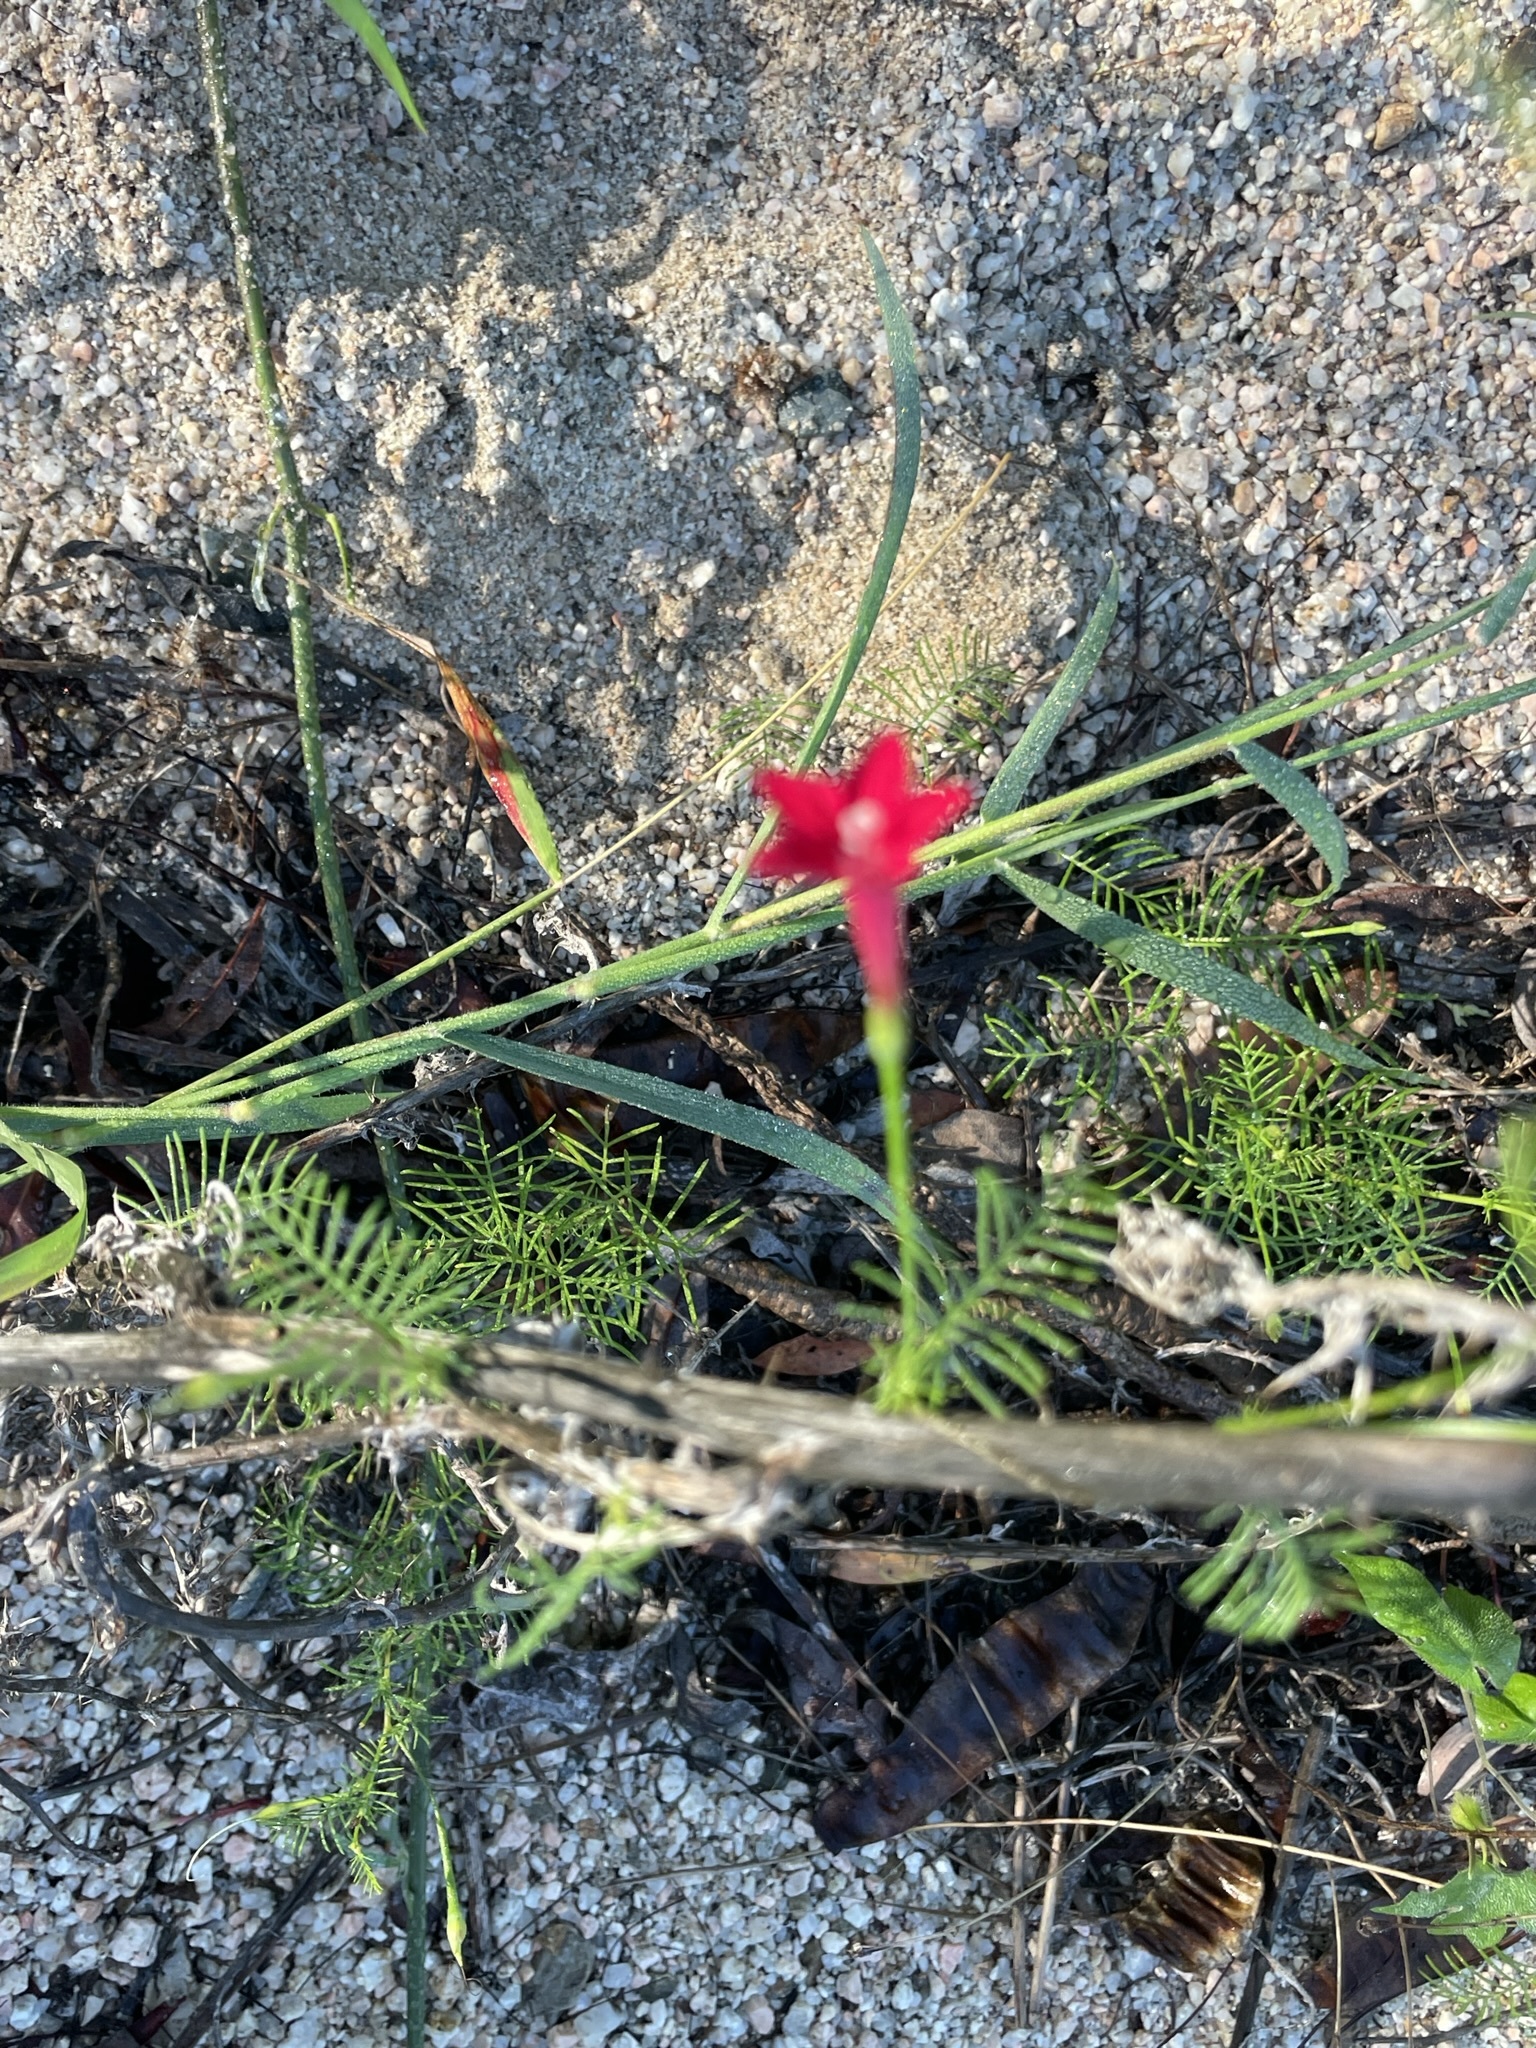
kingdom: Plantae
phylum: Tracheophyta
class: Magnoliopsida
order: Solanales
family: Convolvulaceae
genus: Ipomoea
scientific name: Ipomoea quamoclit
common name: Cypress vine
